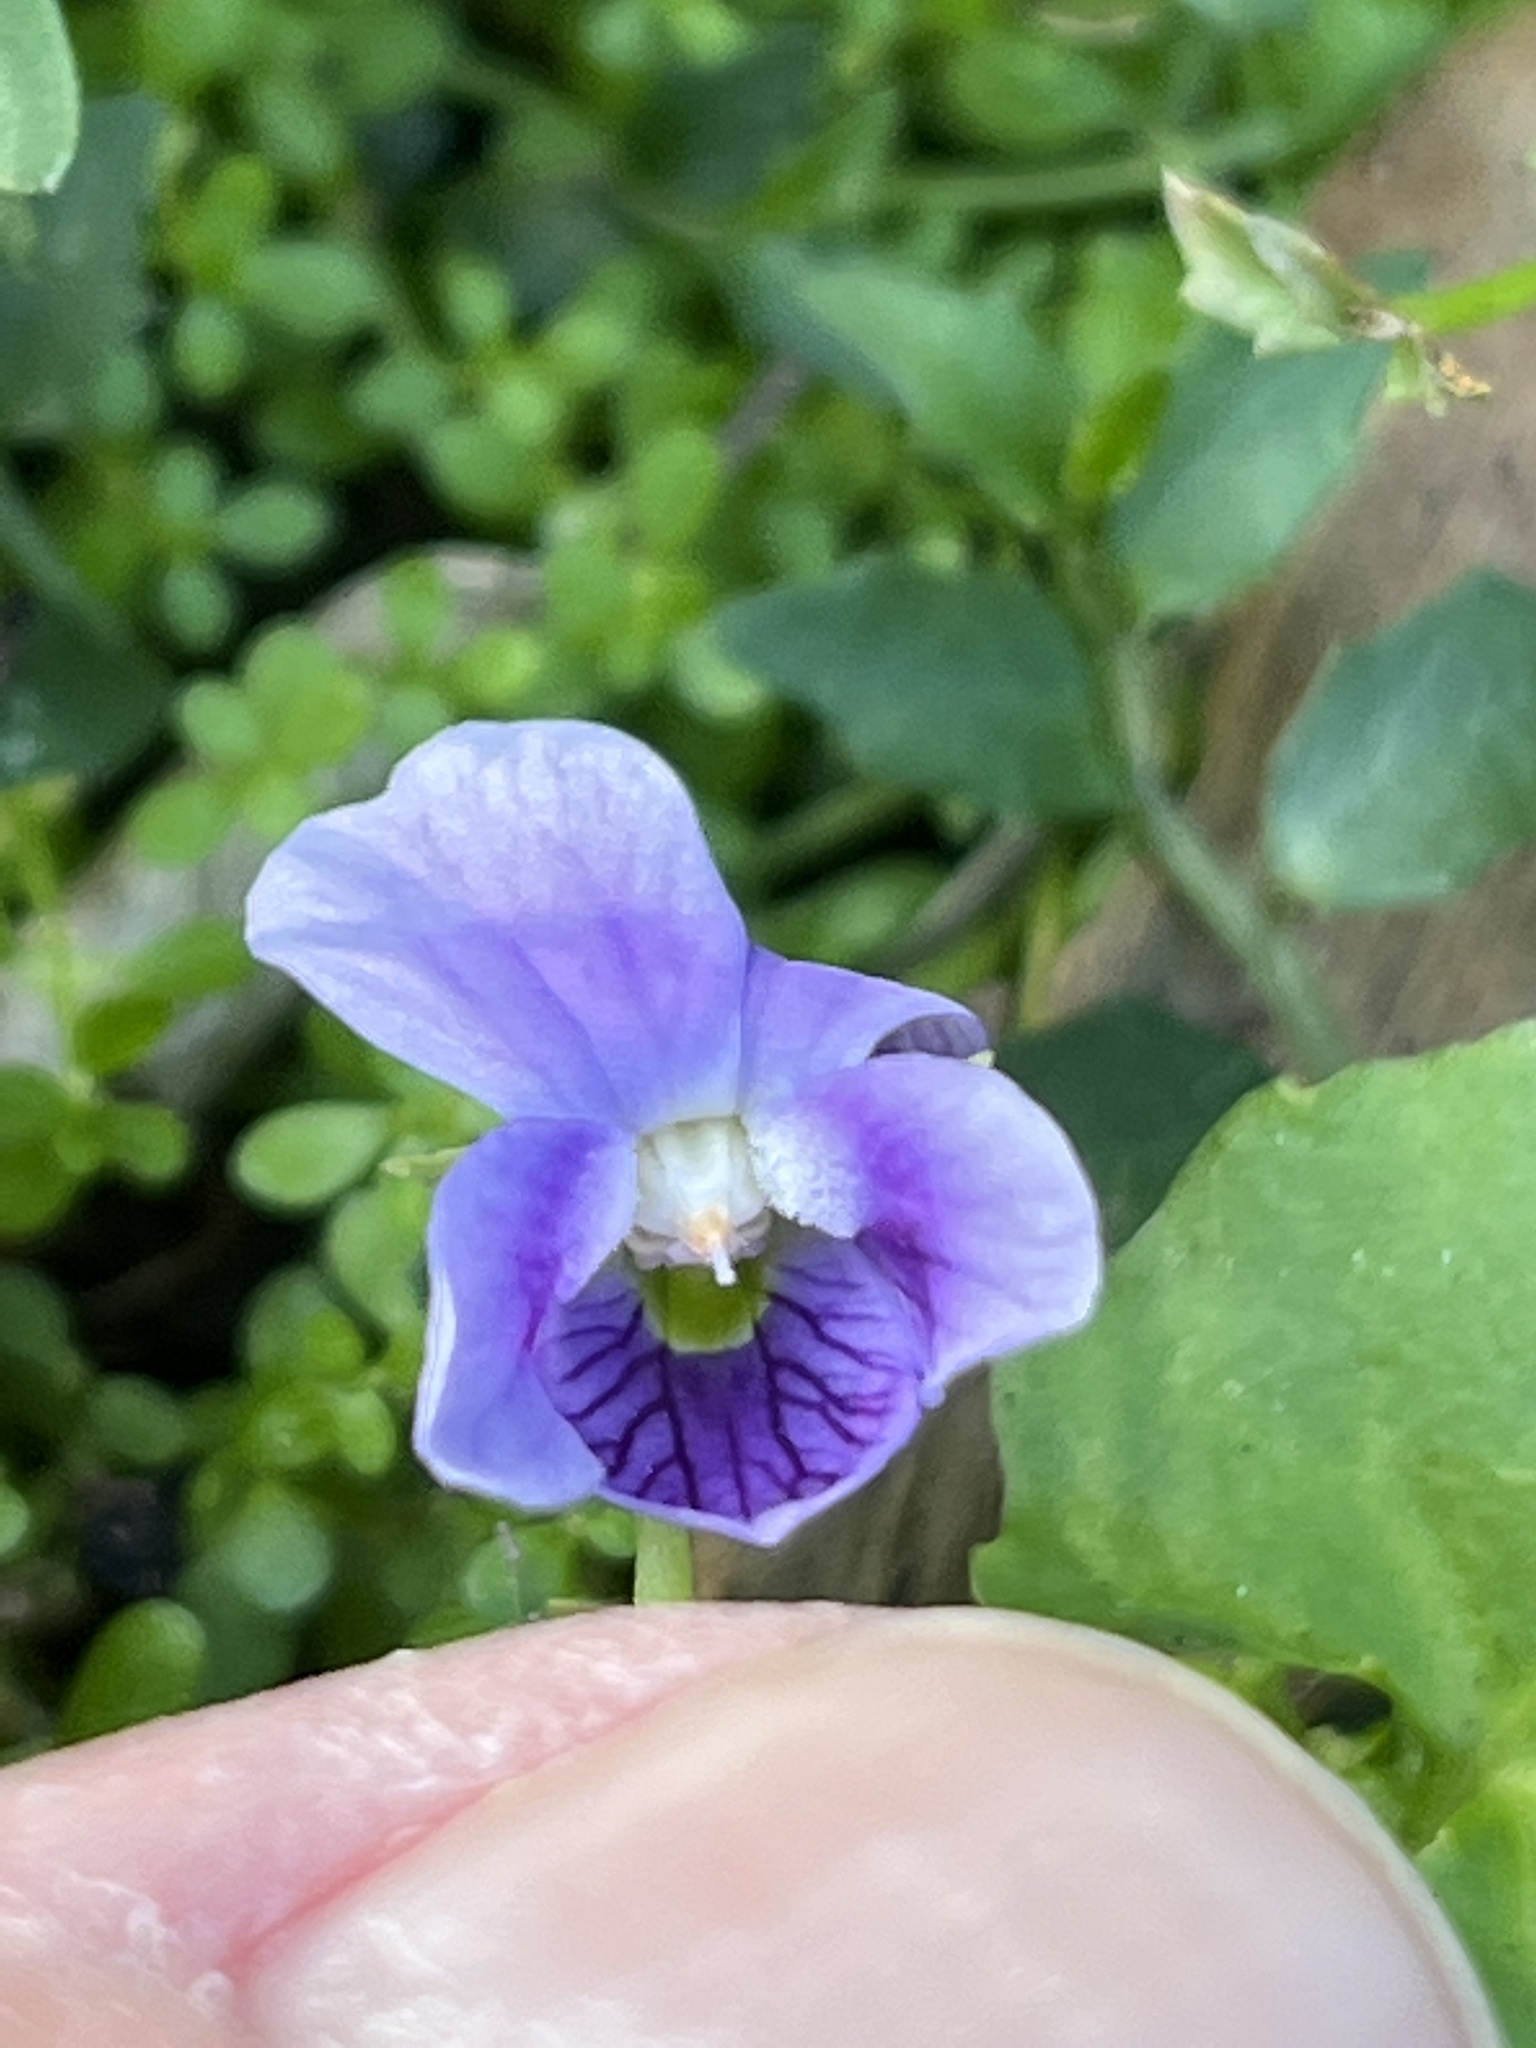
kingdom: Plantae
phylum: Tracheophyta
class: Magnoliopsida
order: Malpighiales
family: Violaceae
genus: Viola
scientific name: Viola perreniformis
